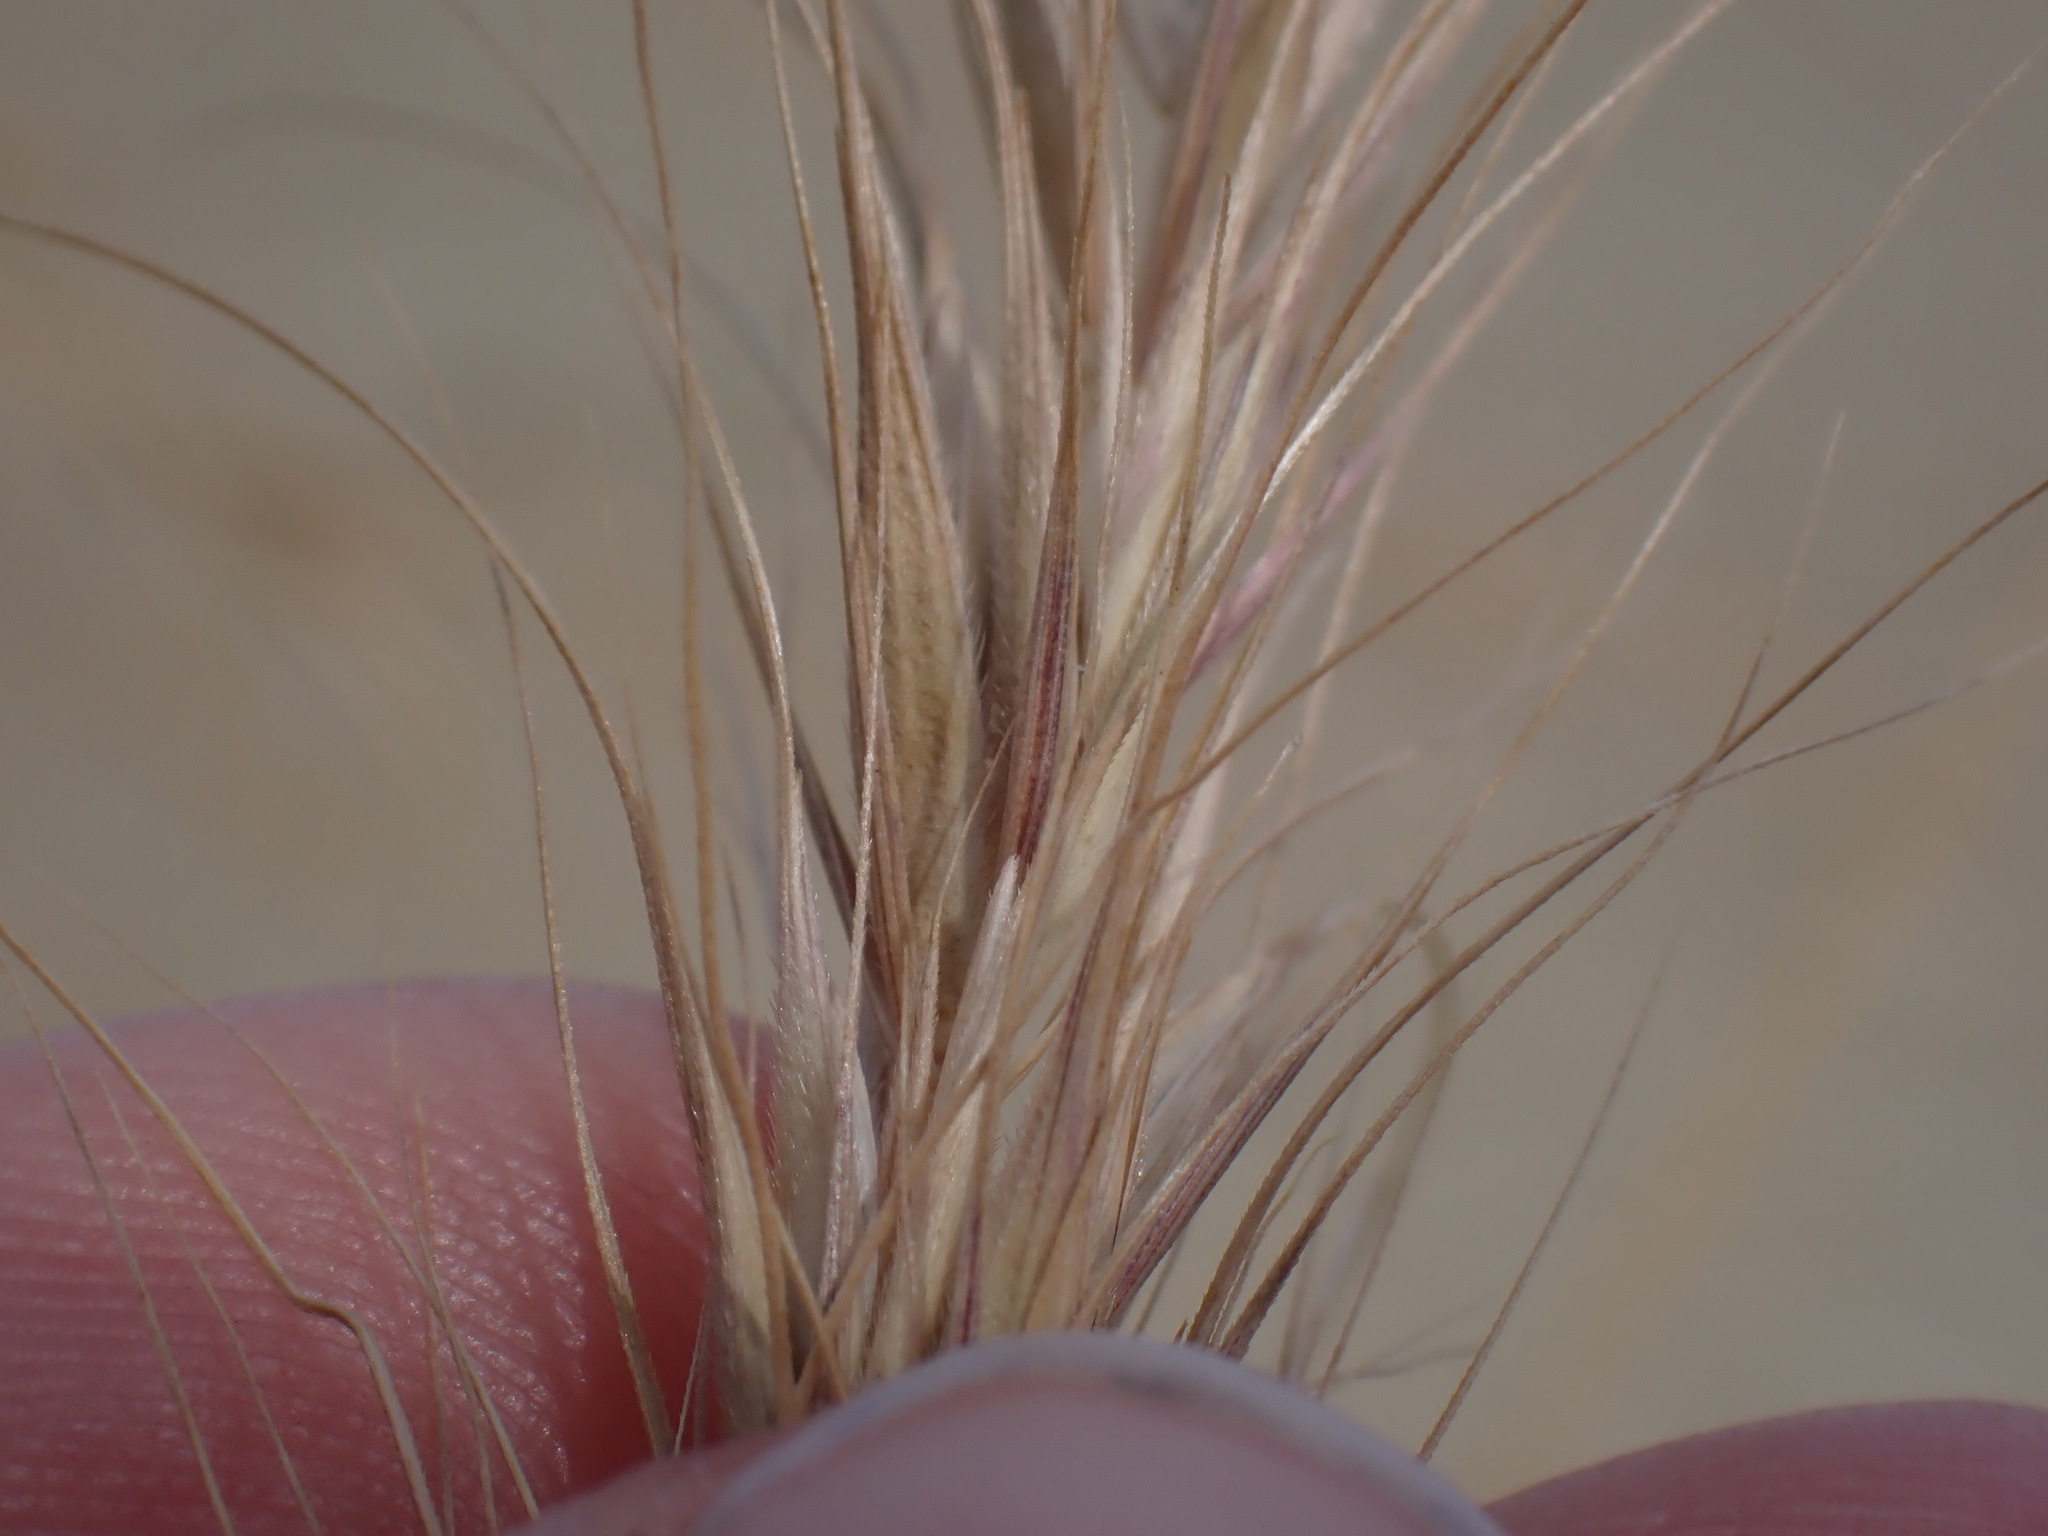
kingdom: Plantae
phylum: Tracheophyta
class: Liliopsida
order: Poales
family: Poaceae
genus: Elymus
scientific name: Elymus canadensis
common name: Canada wild rye
